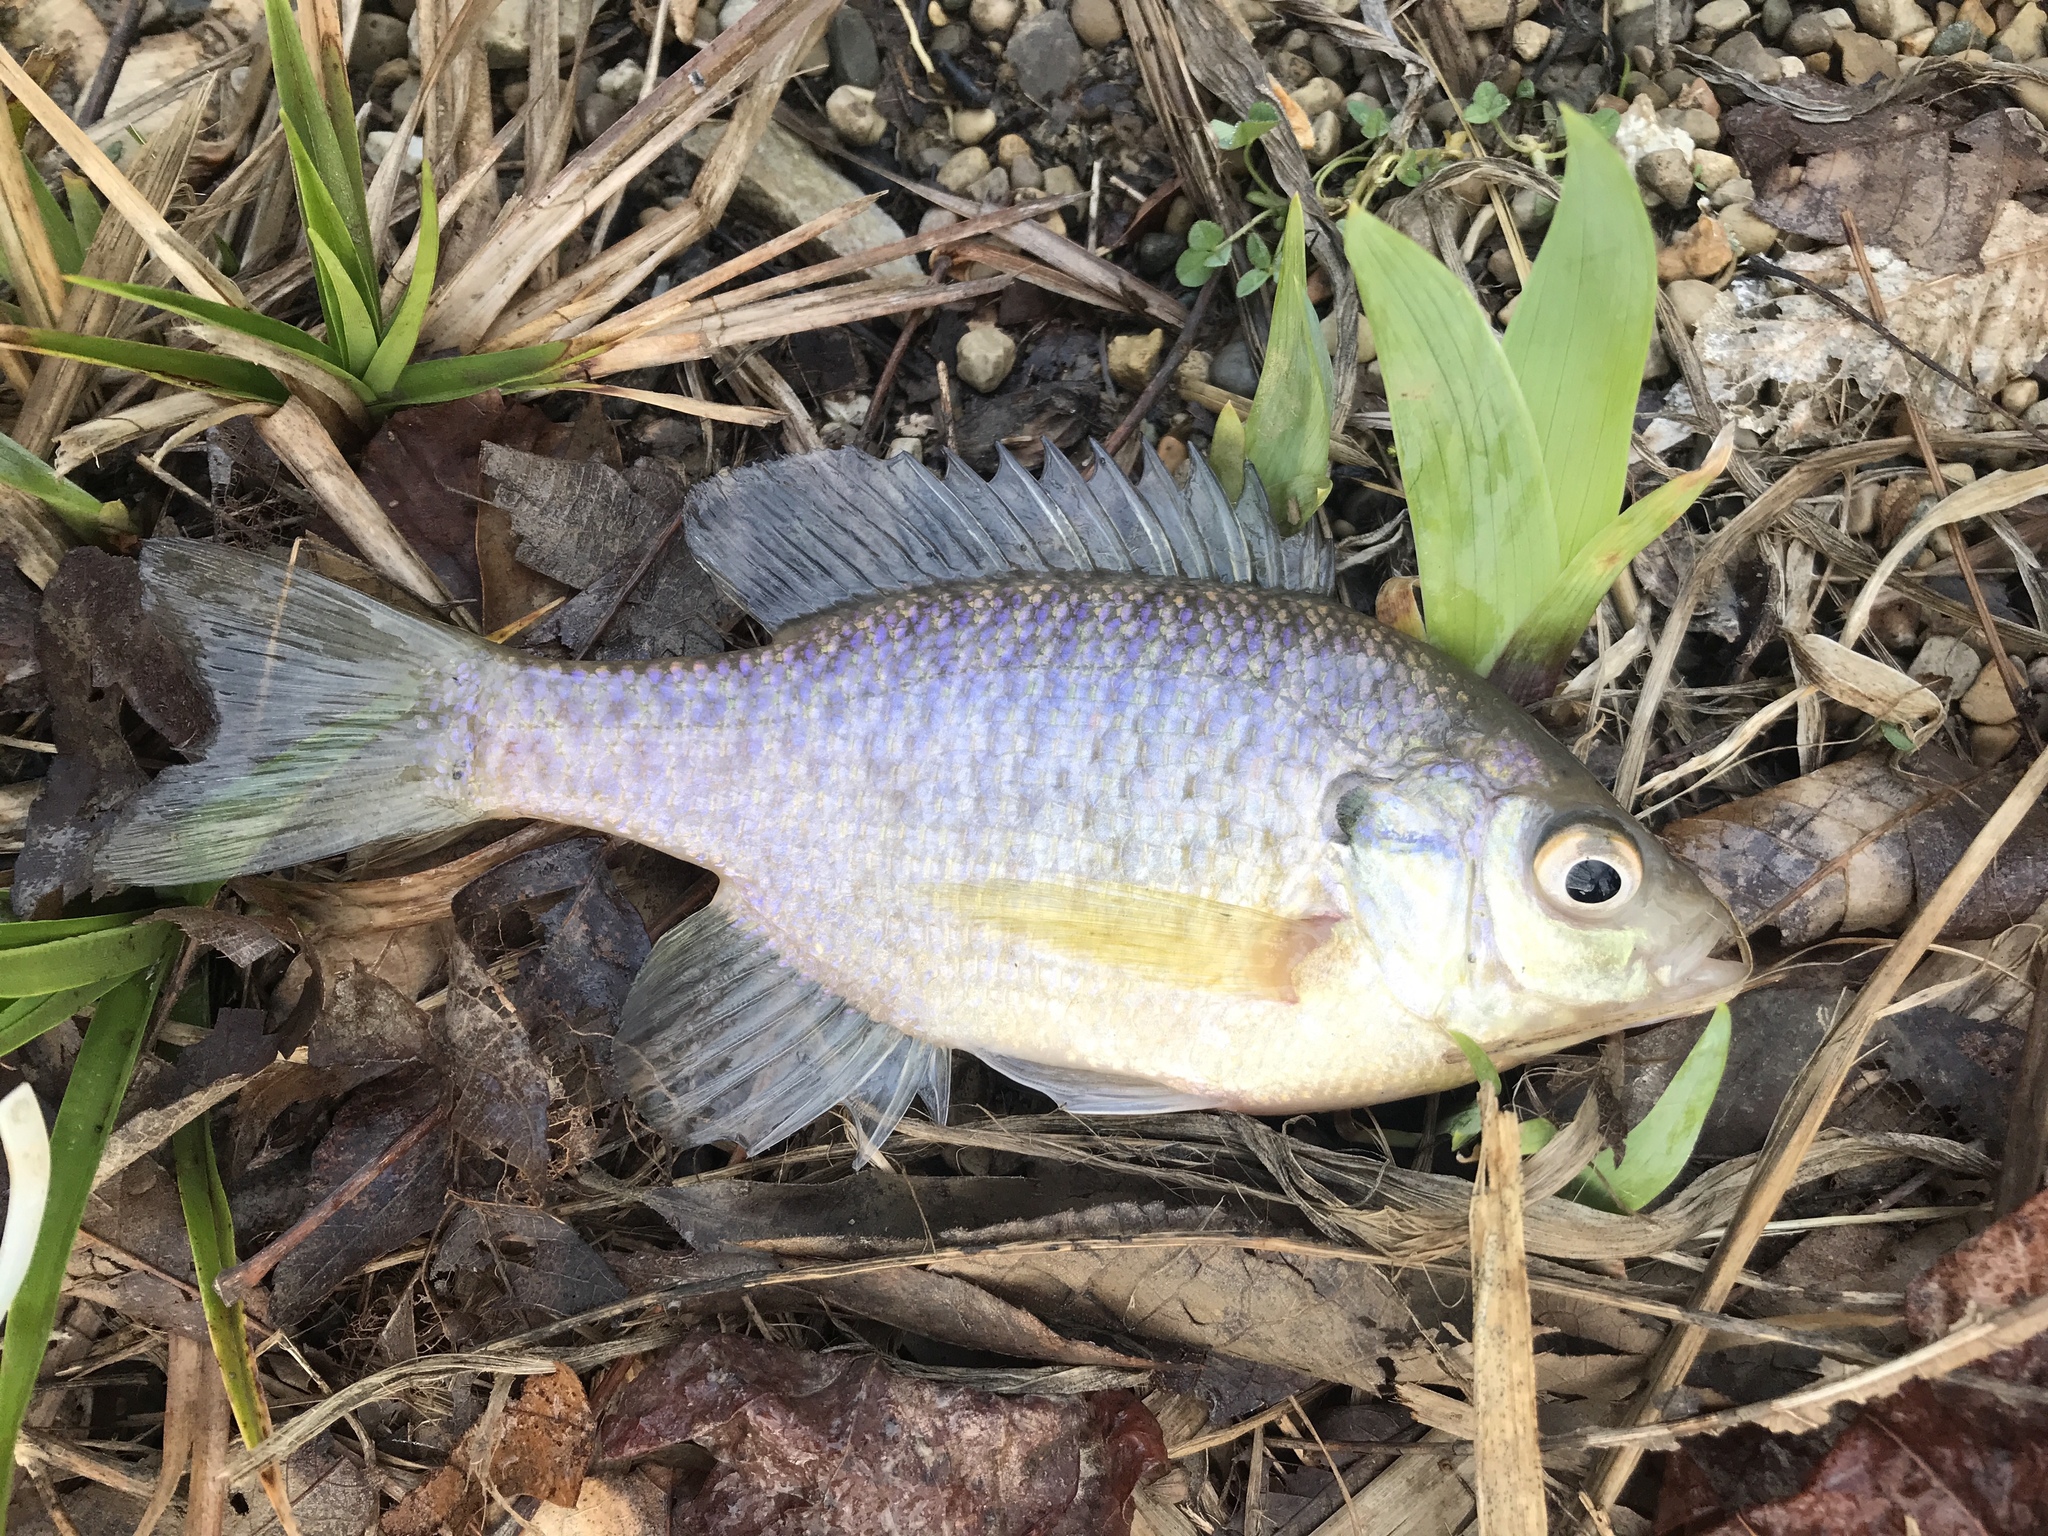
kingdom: Animalia
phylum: Chordata
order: Perciformes
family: Centrarchidae
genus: Lepomis
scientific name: Lepomis macrochirus
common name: Bluegill
